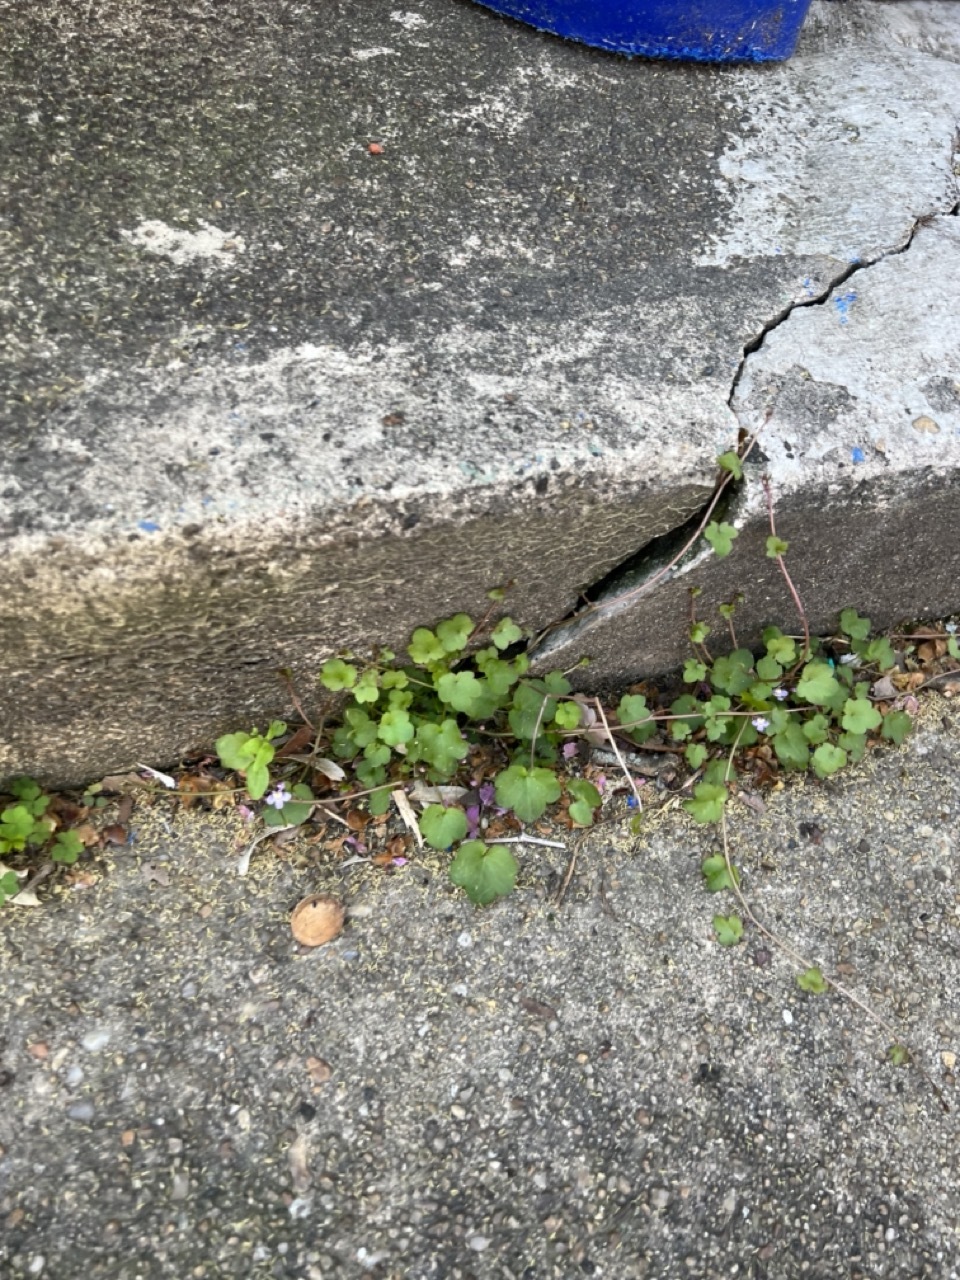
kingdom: Plantae
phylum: Tracheophyta
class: Magnoliopsida
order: Lamiales
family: Plantaginaceae
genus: Cymbalaria
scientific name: Cymbalaria muralis
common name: Ivy-leaved toadflax
